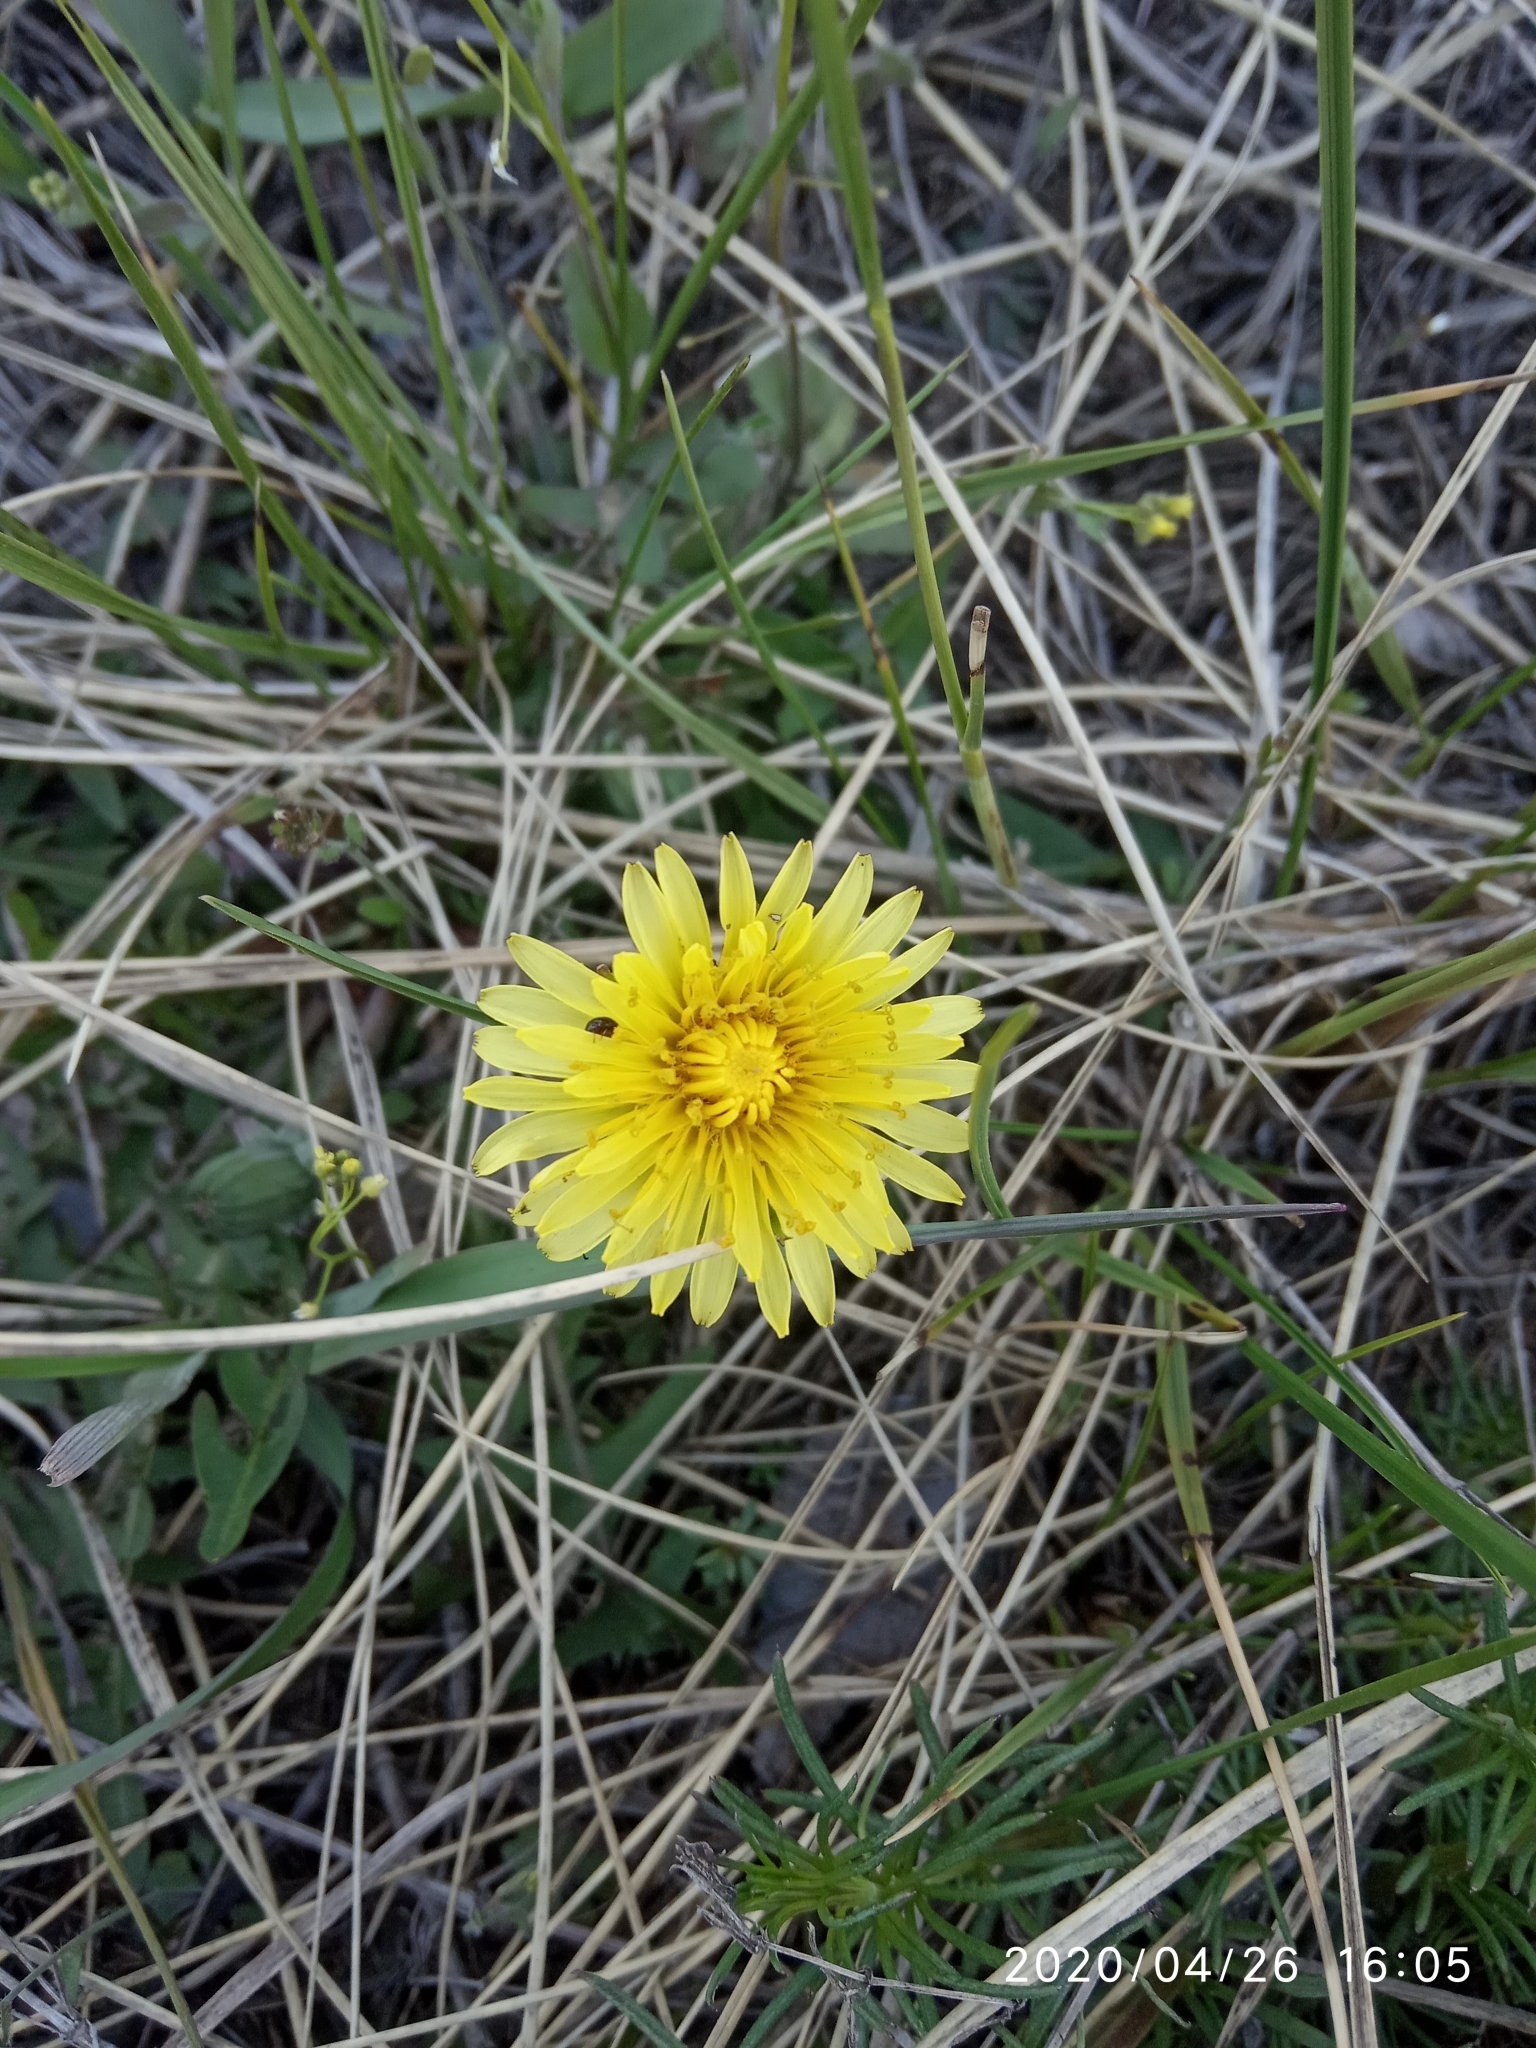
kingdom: Plantae
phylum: Tracheophyta
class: Magnoliopsida
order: Asterales
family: Asteraceae
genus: Taraxacum
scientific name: Taraxacum officinale
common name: Common dandelion
